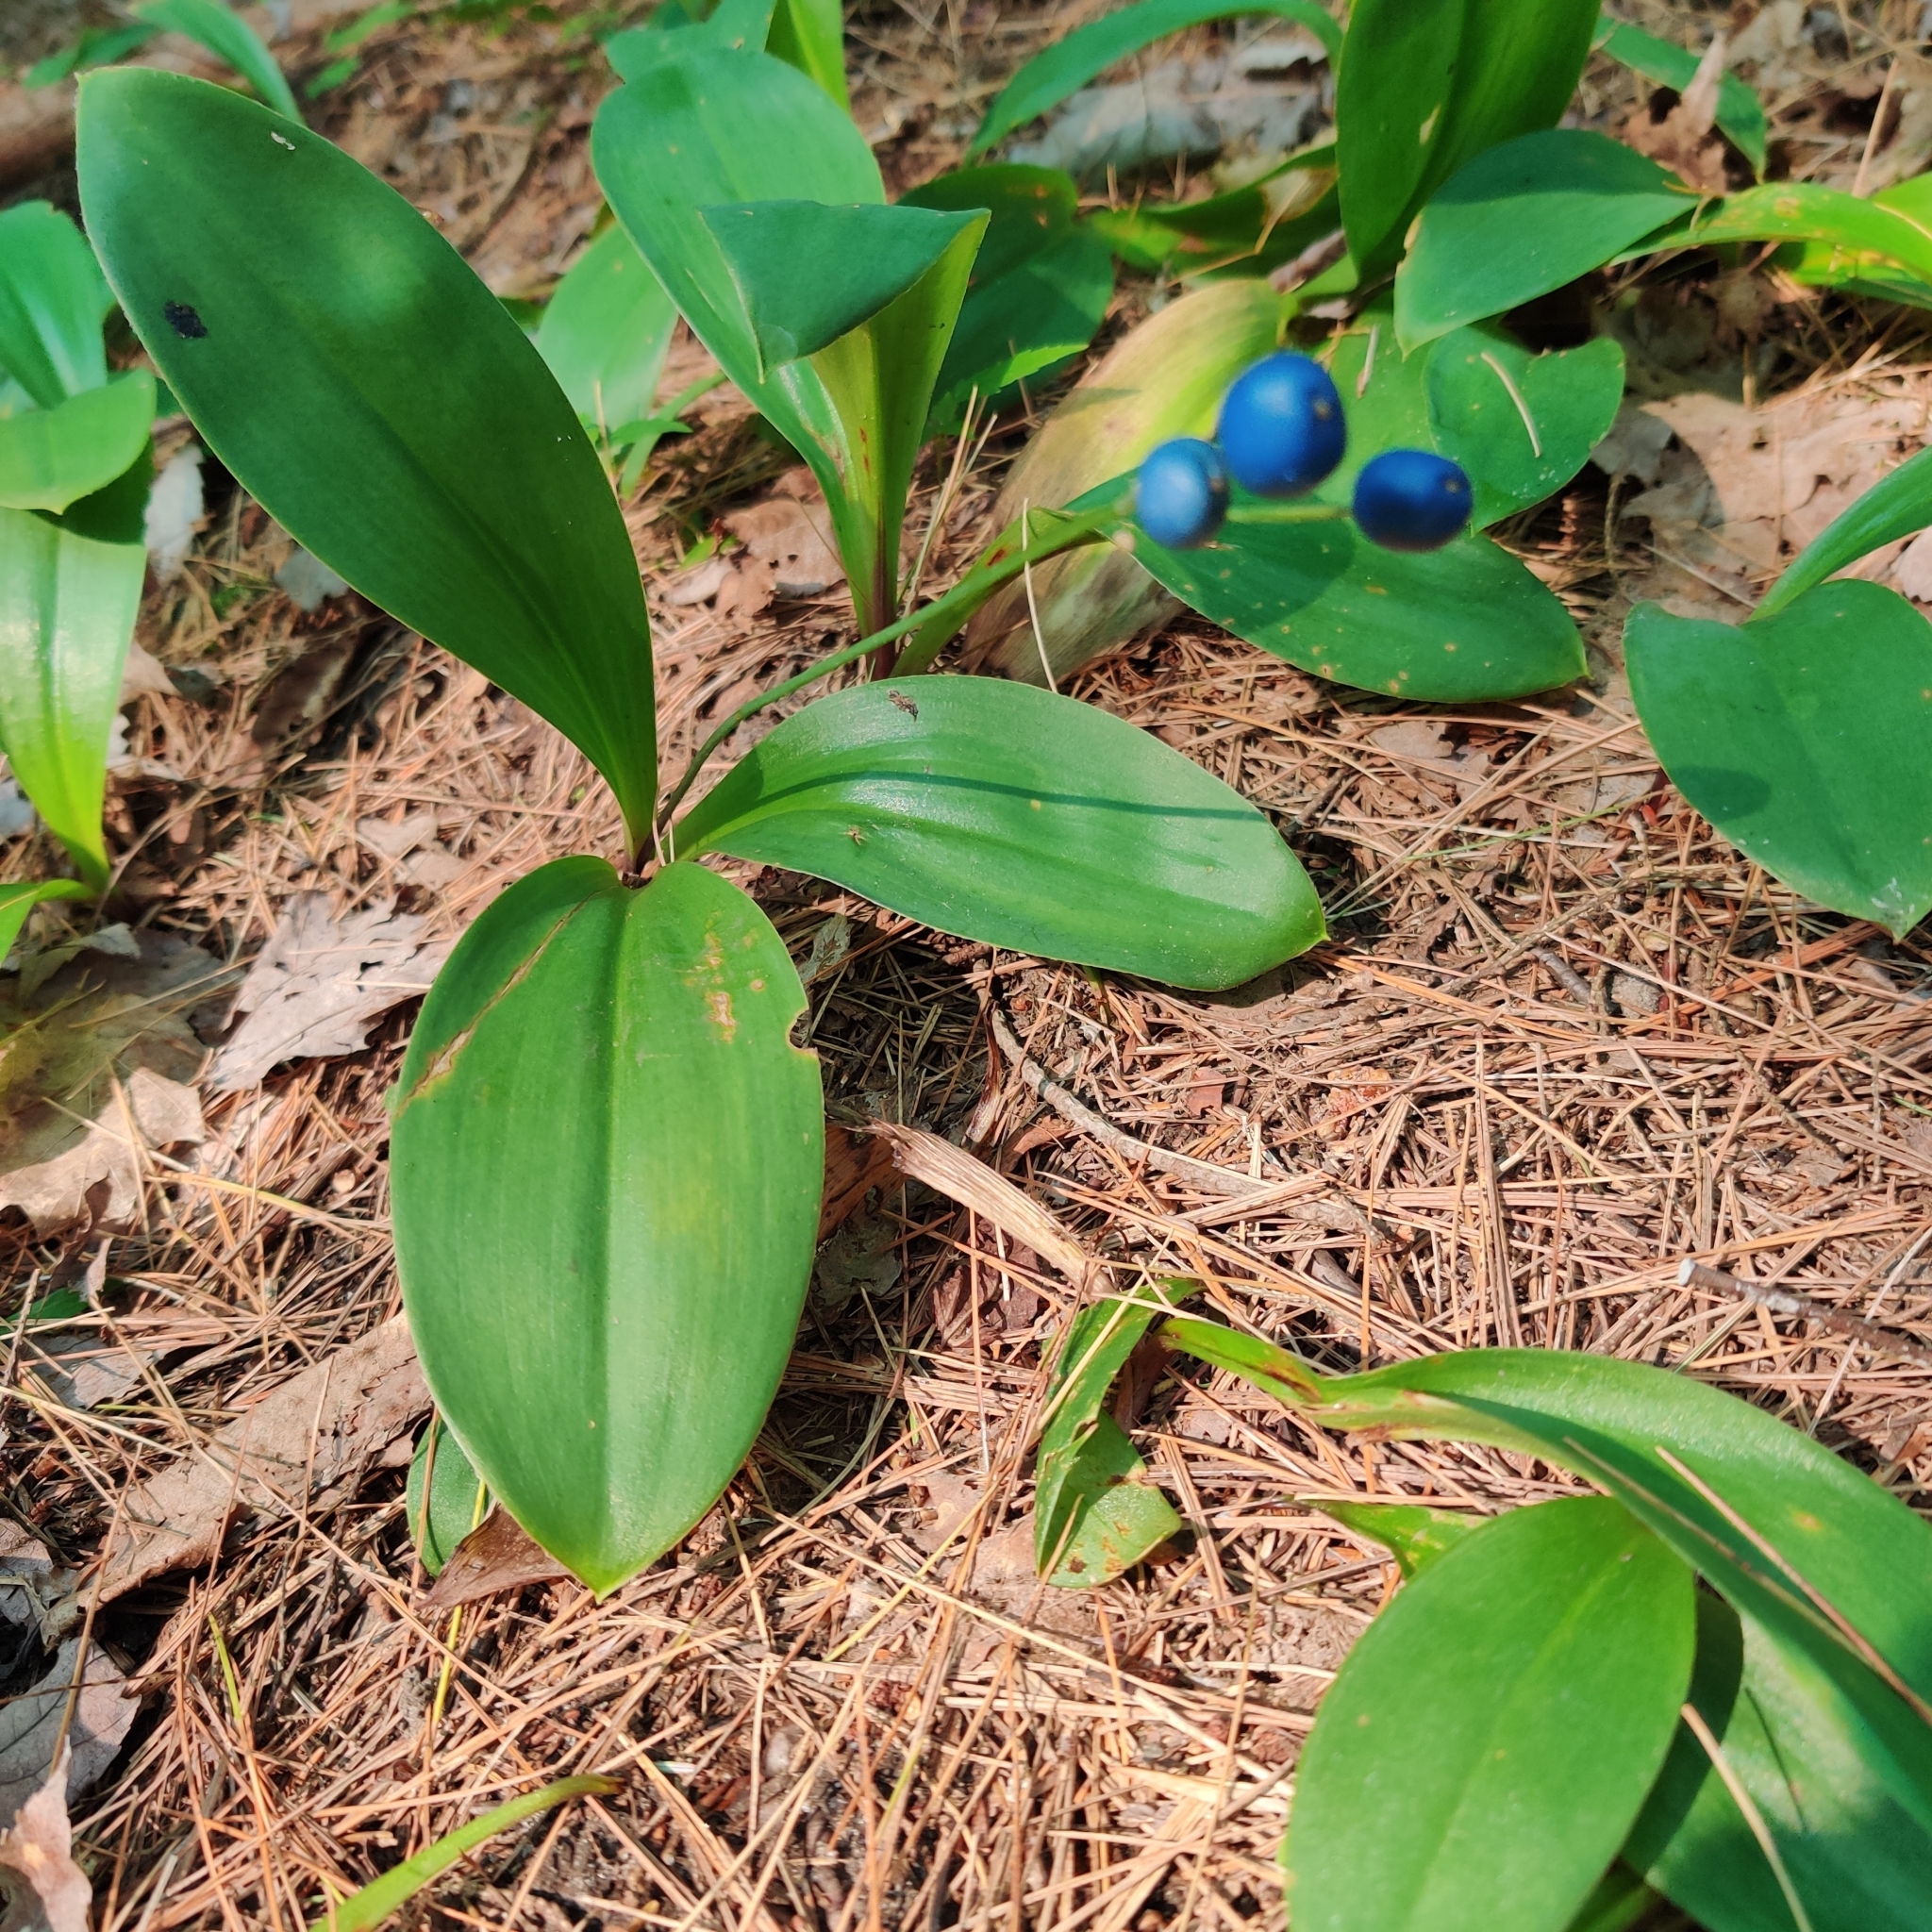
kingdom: Plantae
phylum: Tracheophyta
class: Liliopsida
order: Liliales
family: Liliaceae
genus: Clintonia
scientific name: Clintonia borealis
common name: Yellow clintonia
